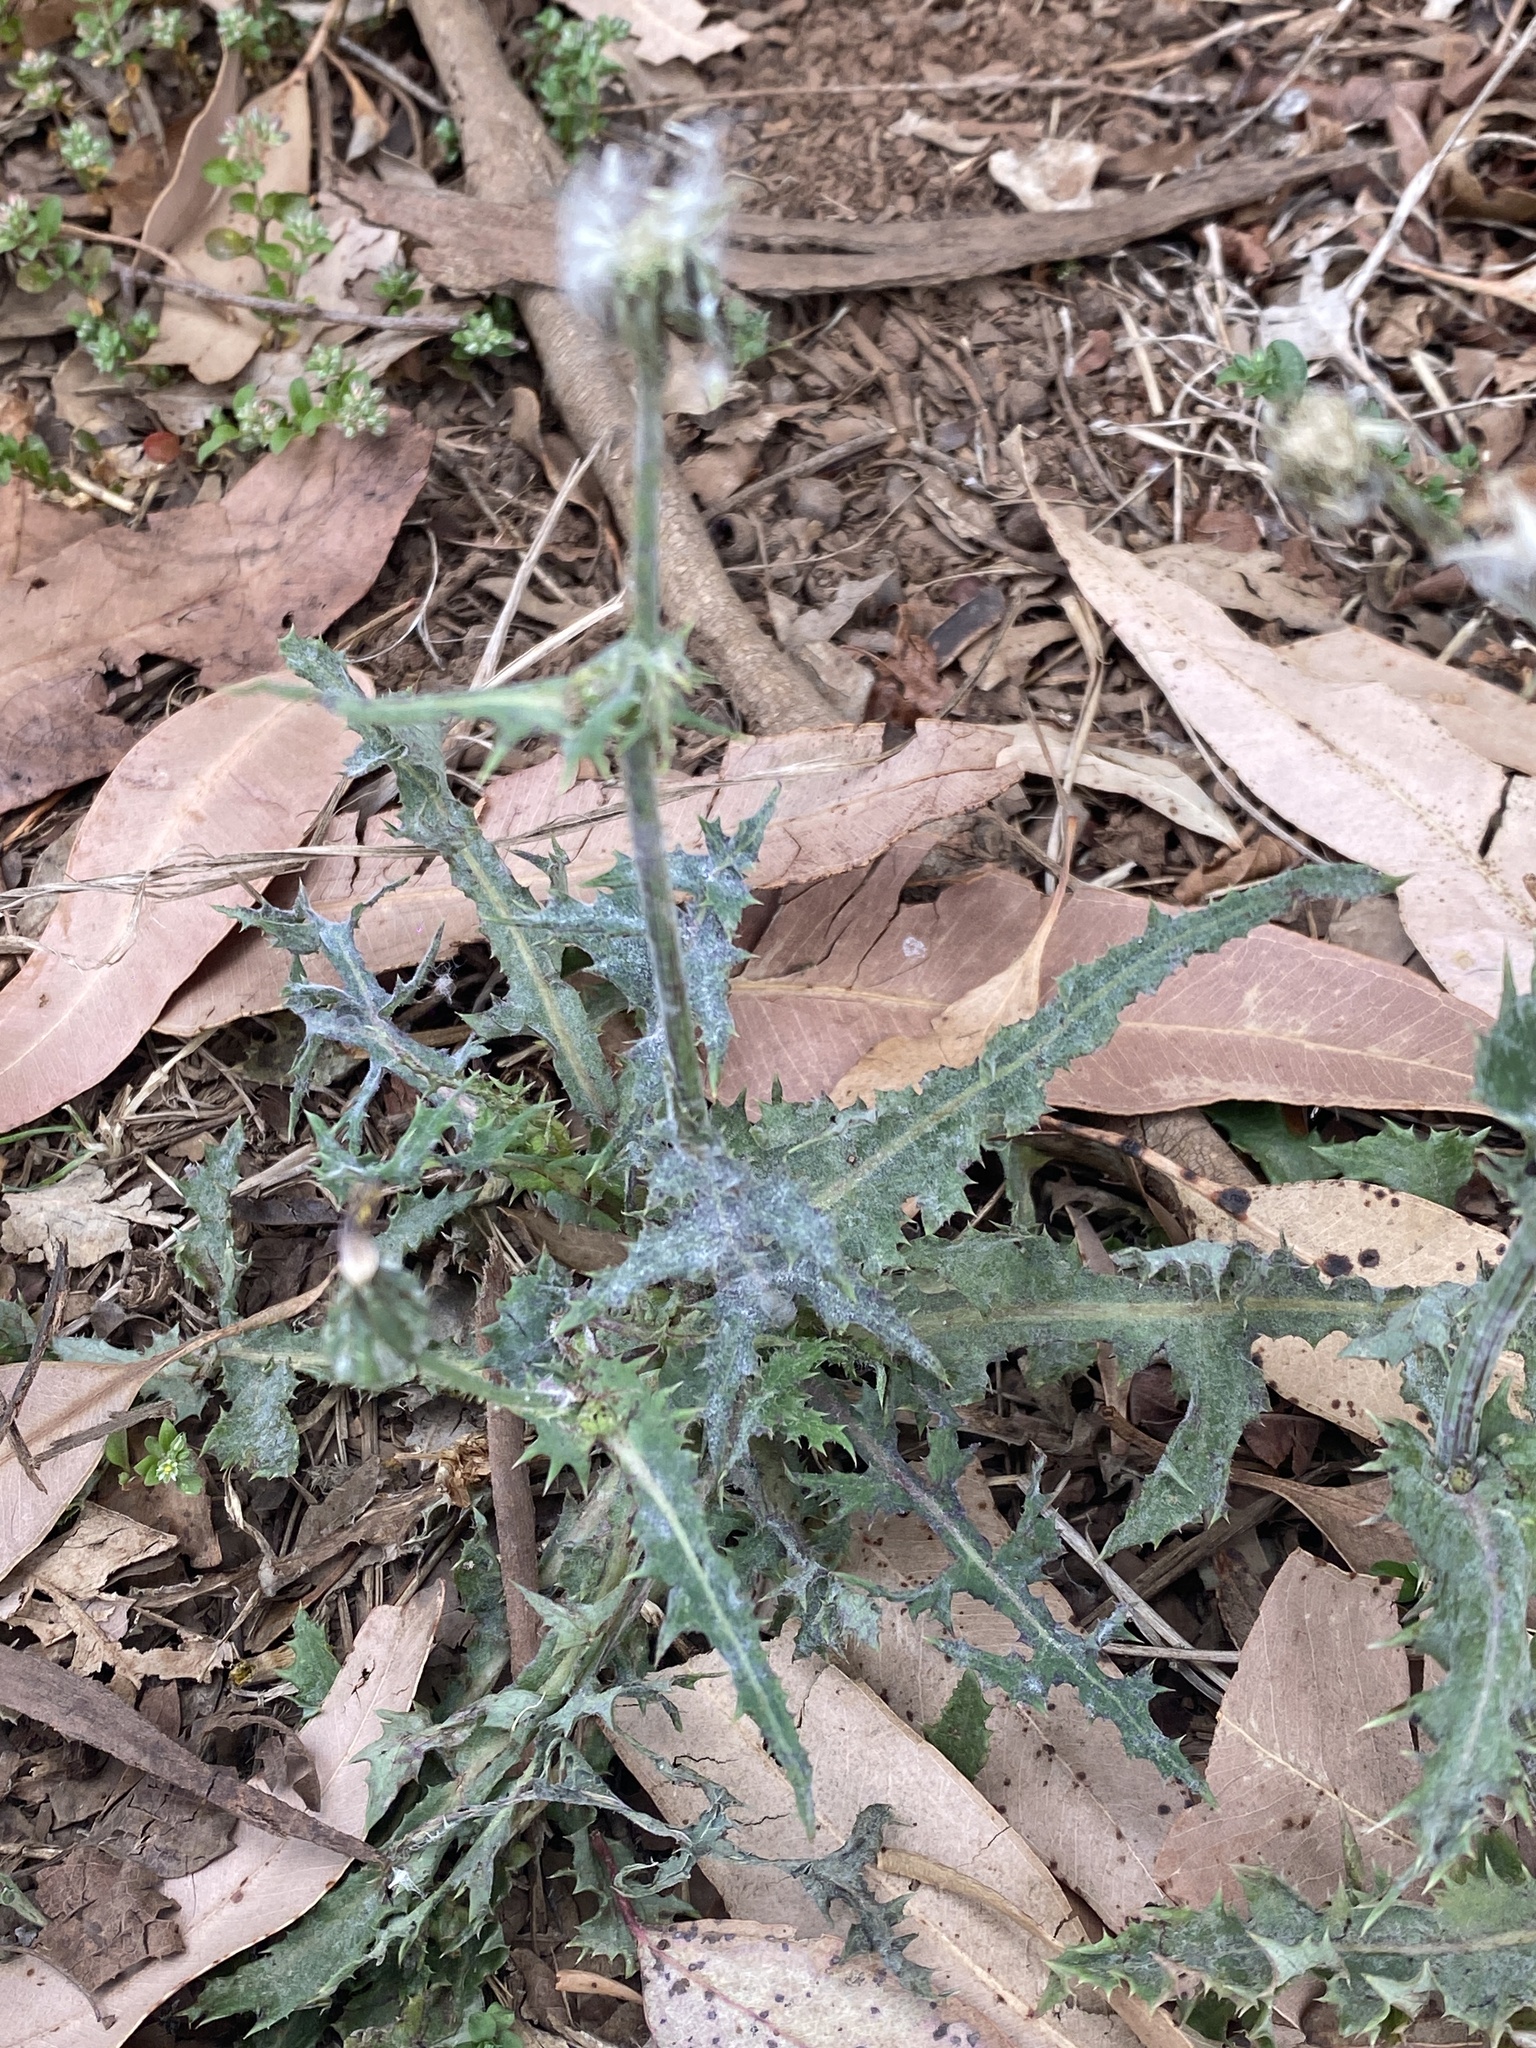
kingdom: Plantae
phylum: Tracheophyta
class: Magnoliopsida
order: Asterales
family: Asteraceae
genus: Sonchus
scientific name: Sonchus oleraceus
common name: Common sowthistle
